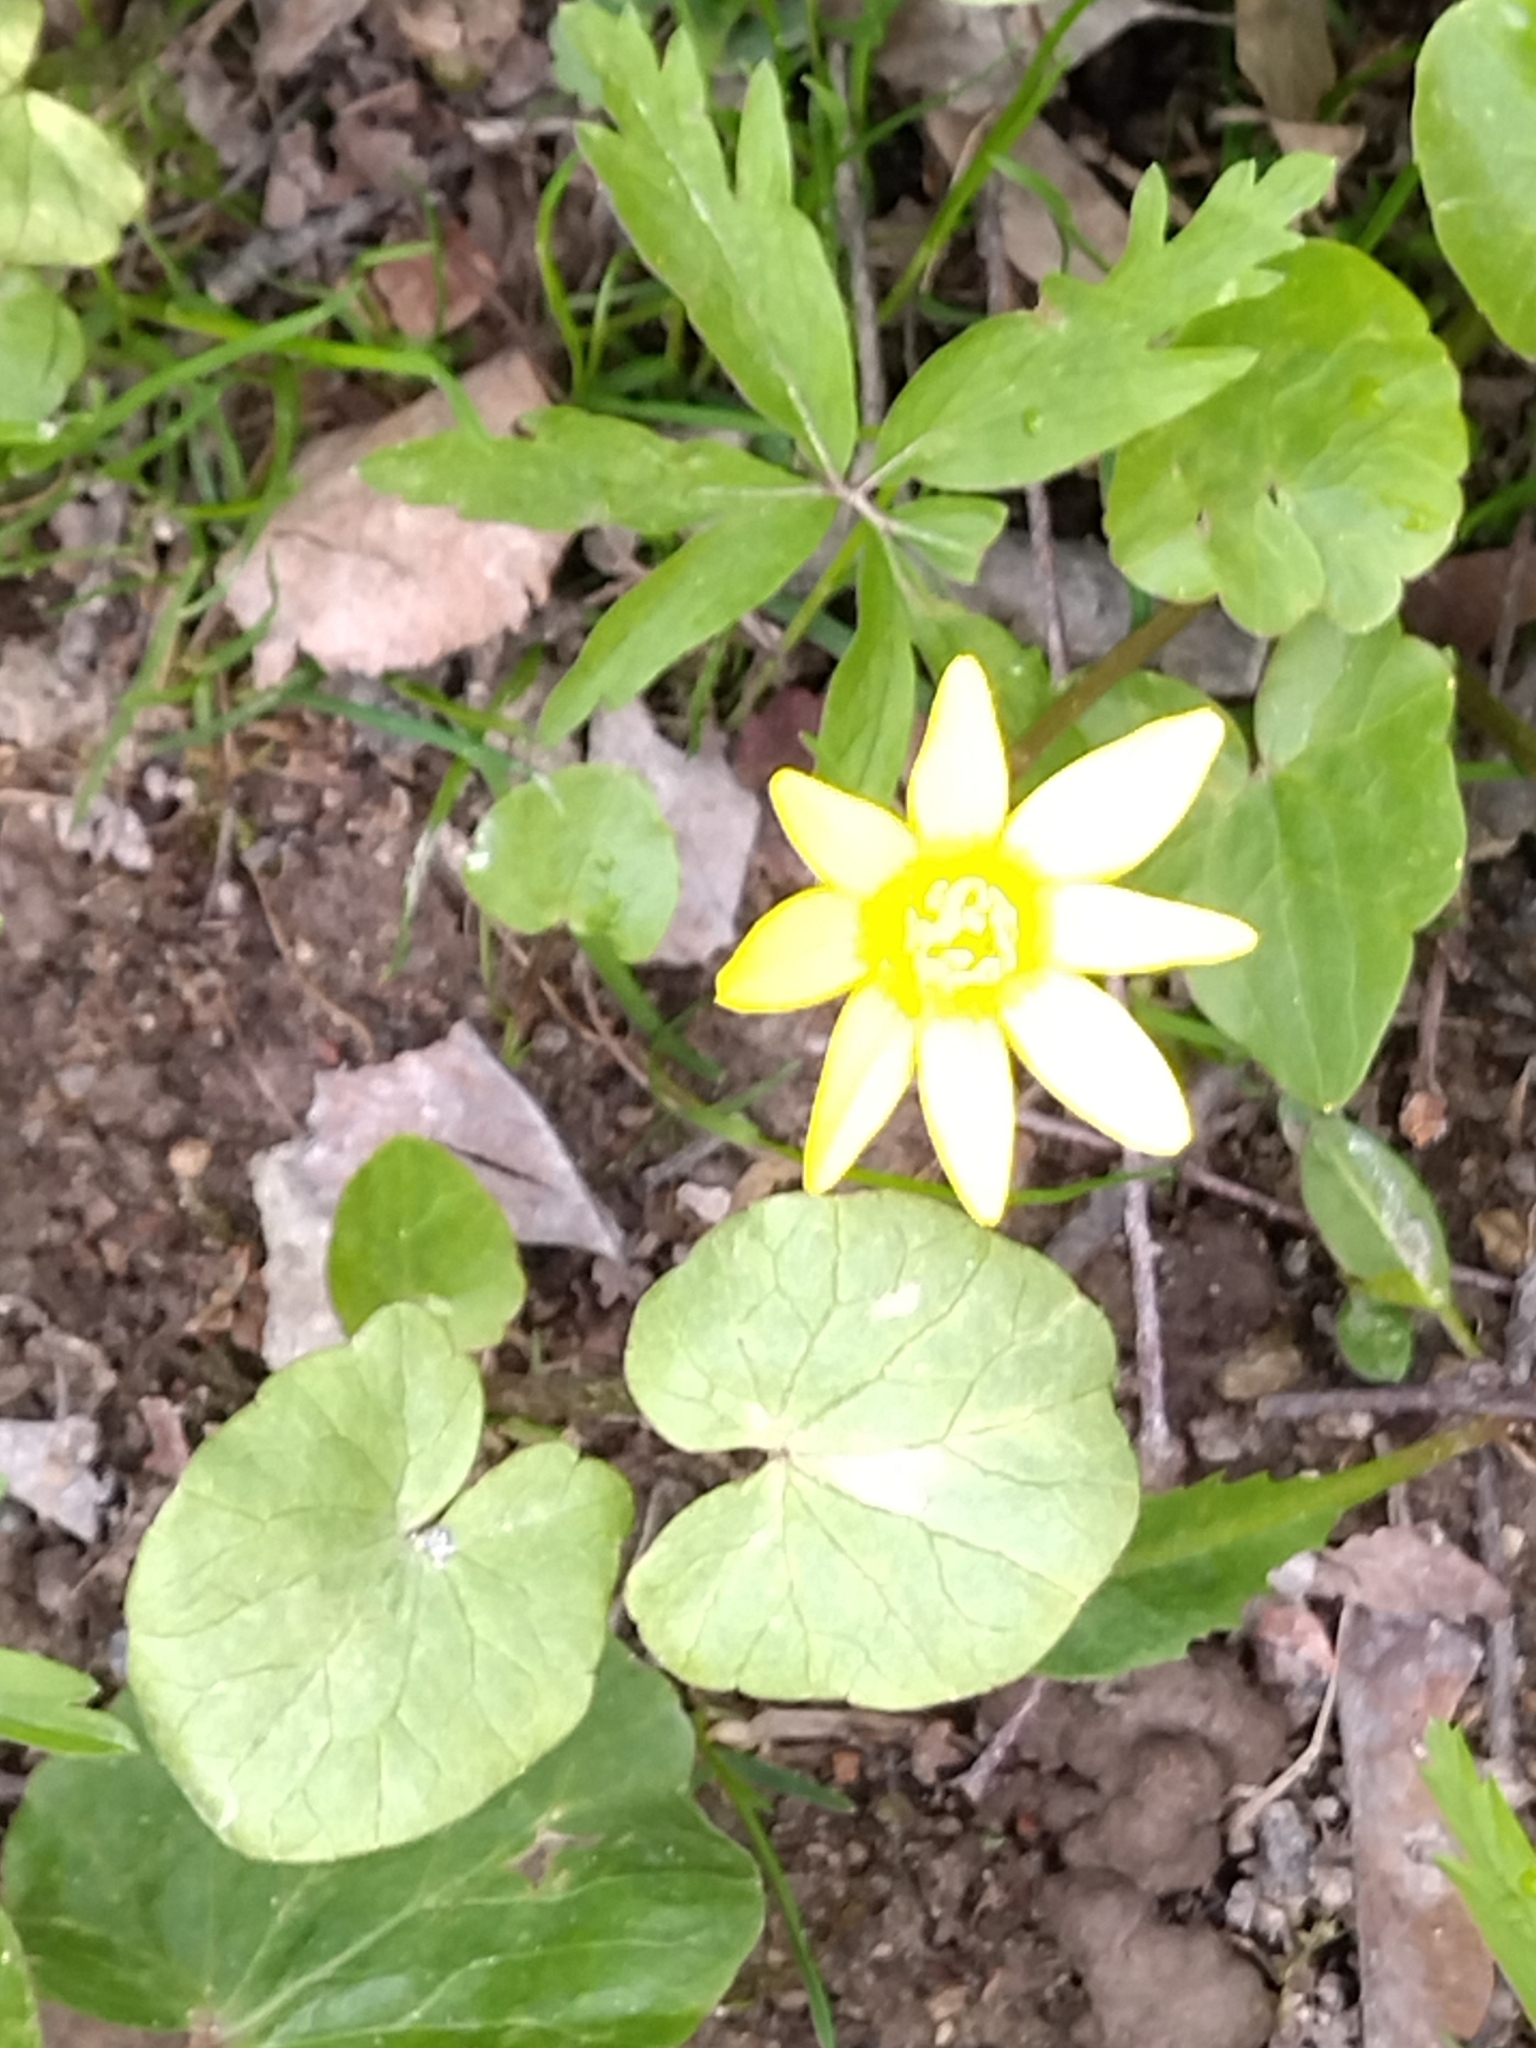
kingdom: Plantae
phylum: Tracheophyta
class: Magnoliopsida
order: Ranunculales
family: Ranunculaceae
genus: Ficaria
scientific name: Ficaria verna
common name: Lesser celandine
